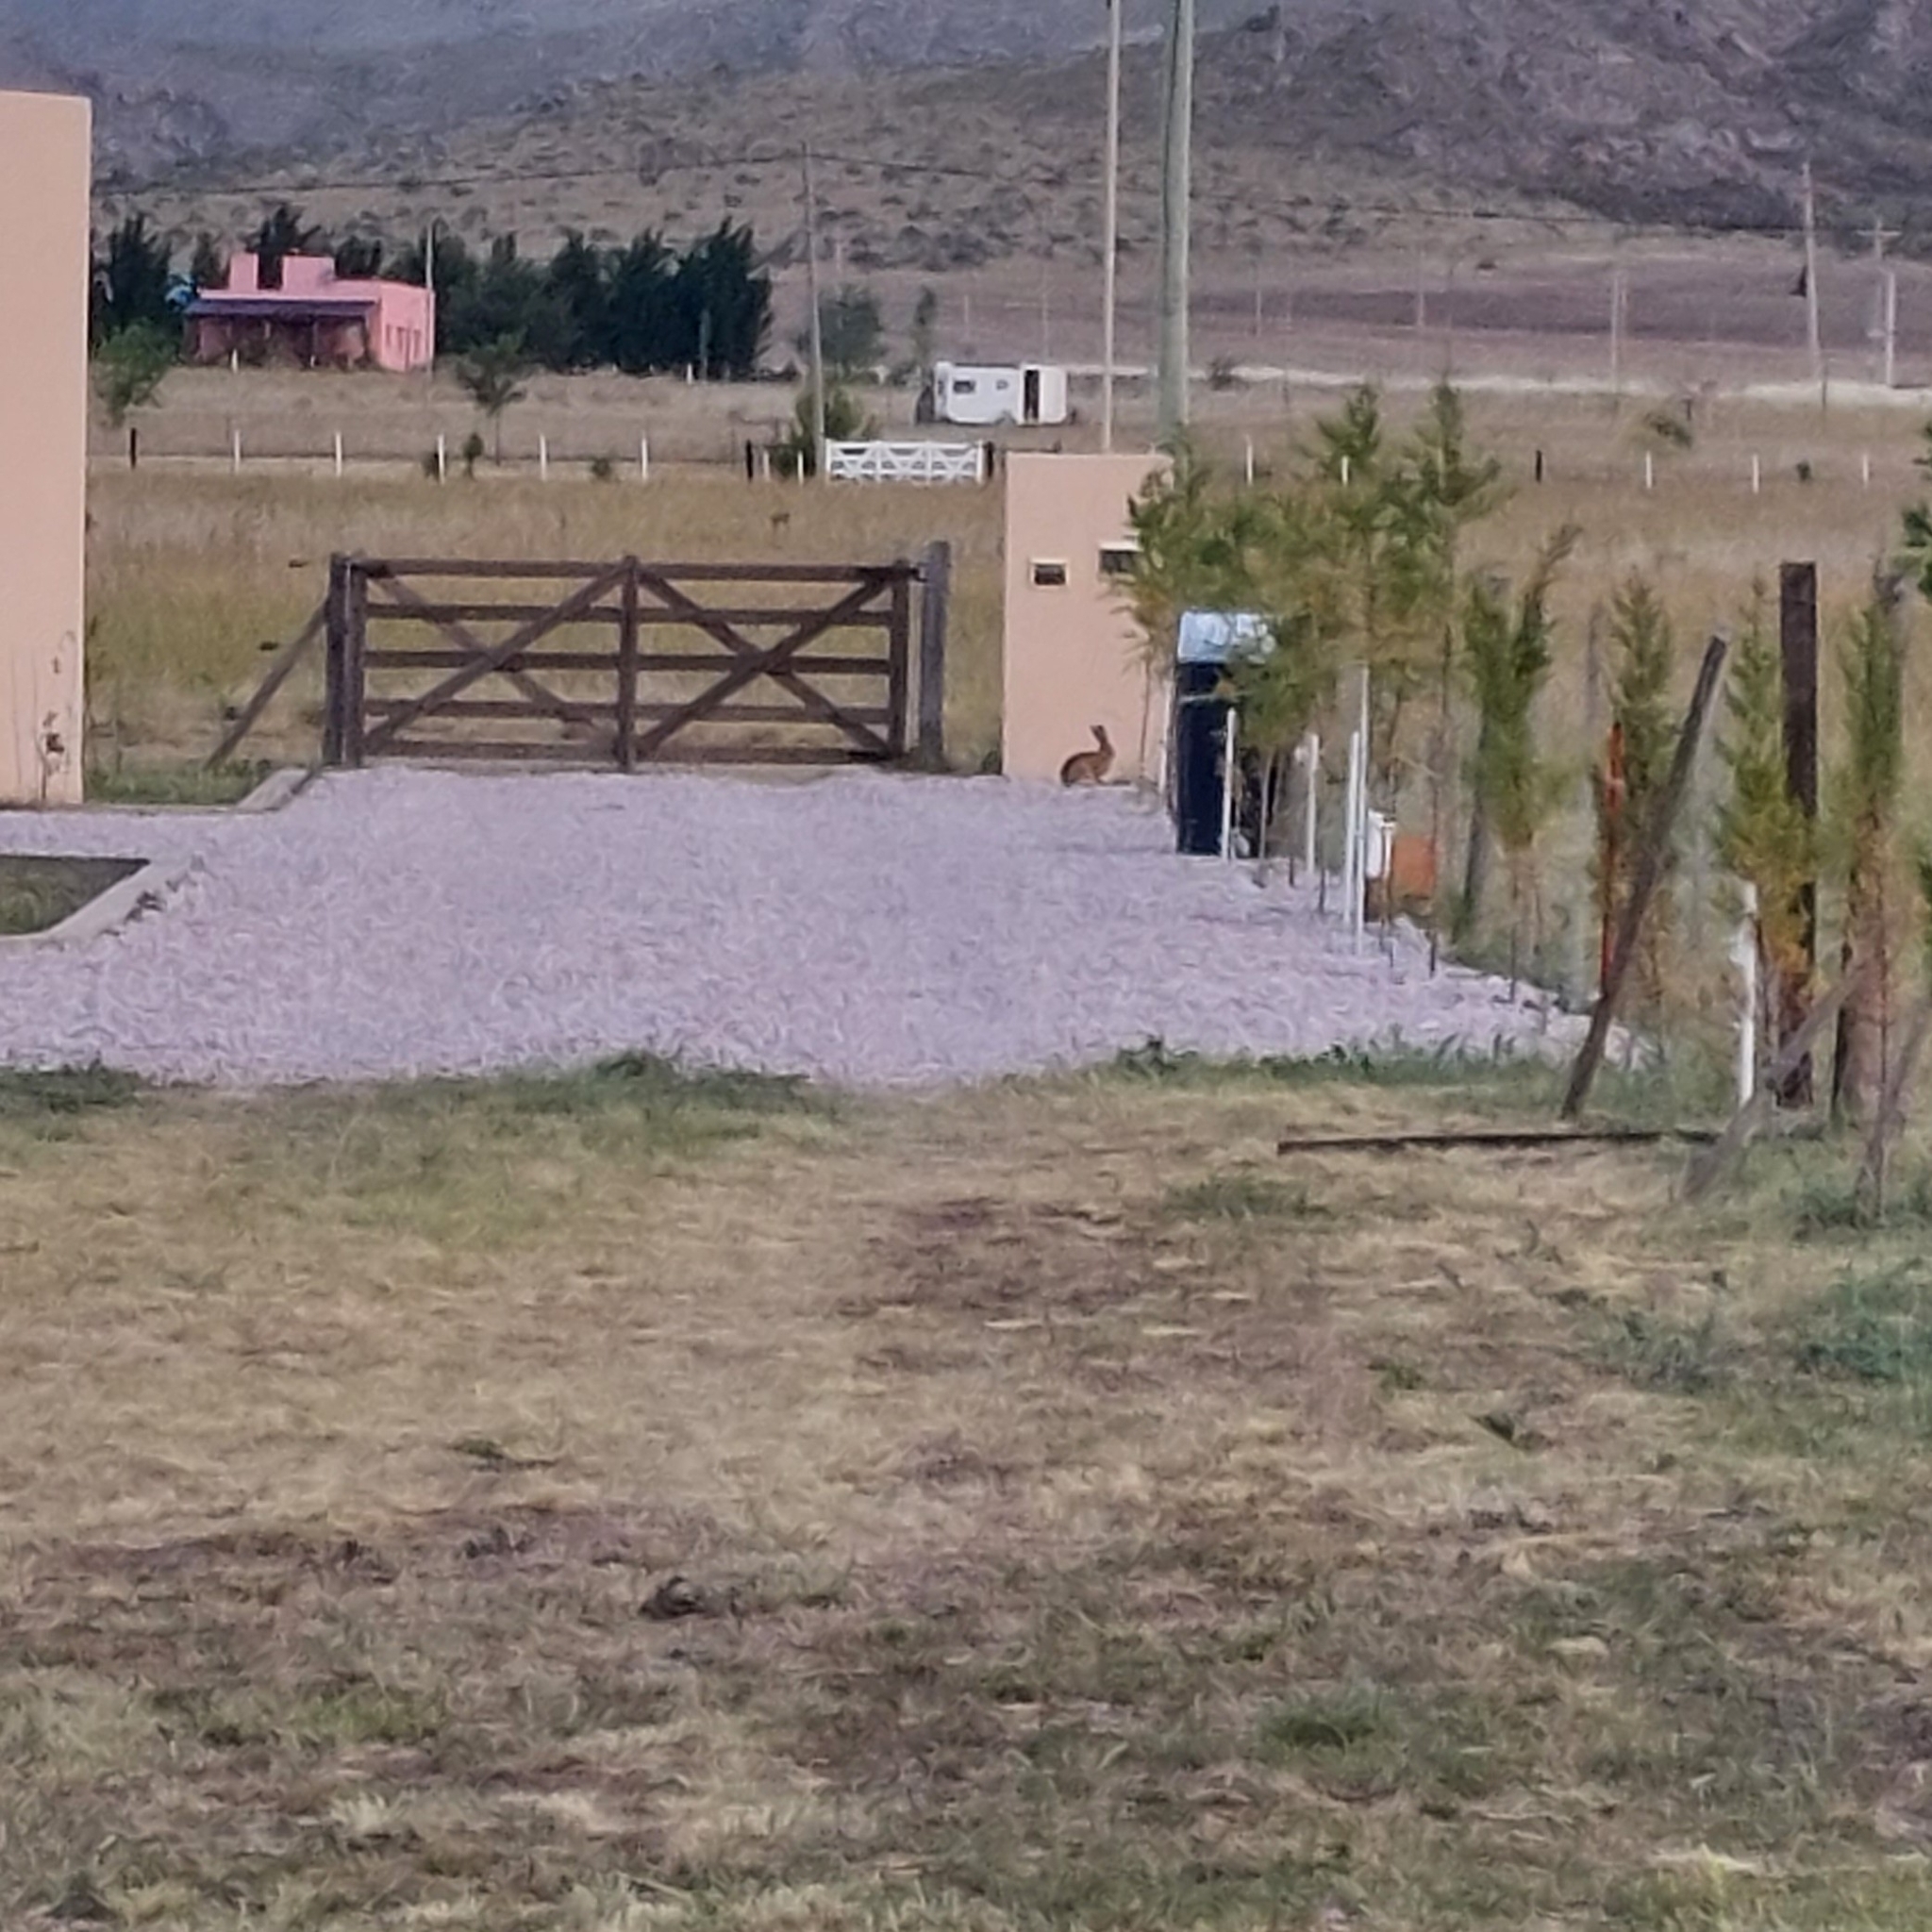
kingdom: Animalia
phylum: Chordata
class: Mammalia
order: Lagomorpha
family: Leporidae
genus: Lepus
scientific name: Lepus europaeus
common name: European hare
